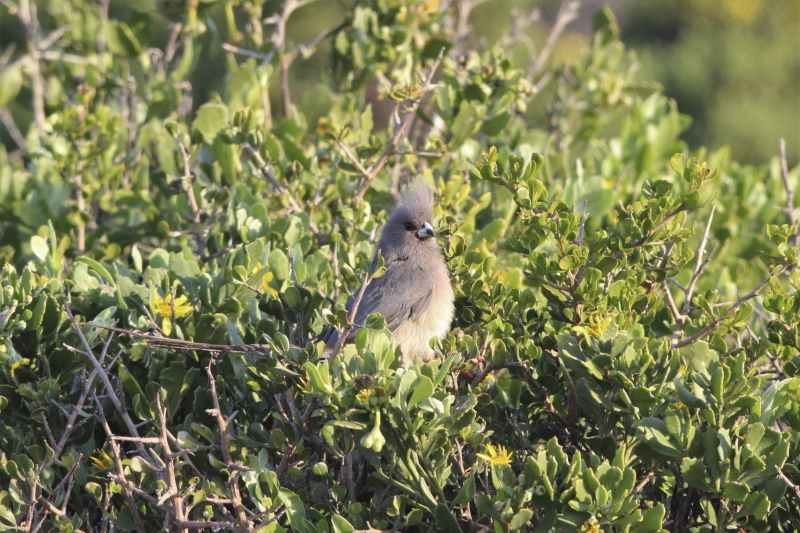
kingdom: Animalia
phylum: Chordata
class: Aves
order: Coliiformes
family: Coliidae
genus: Colius
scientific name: Colius colius
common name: White-backed mousebird
